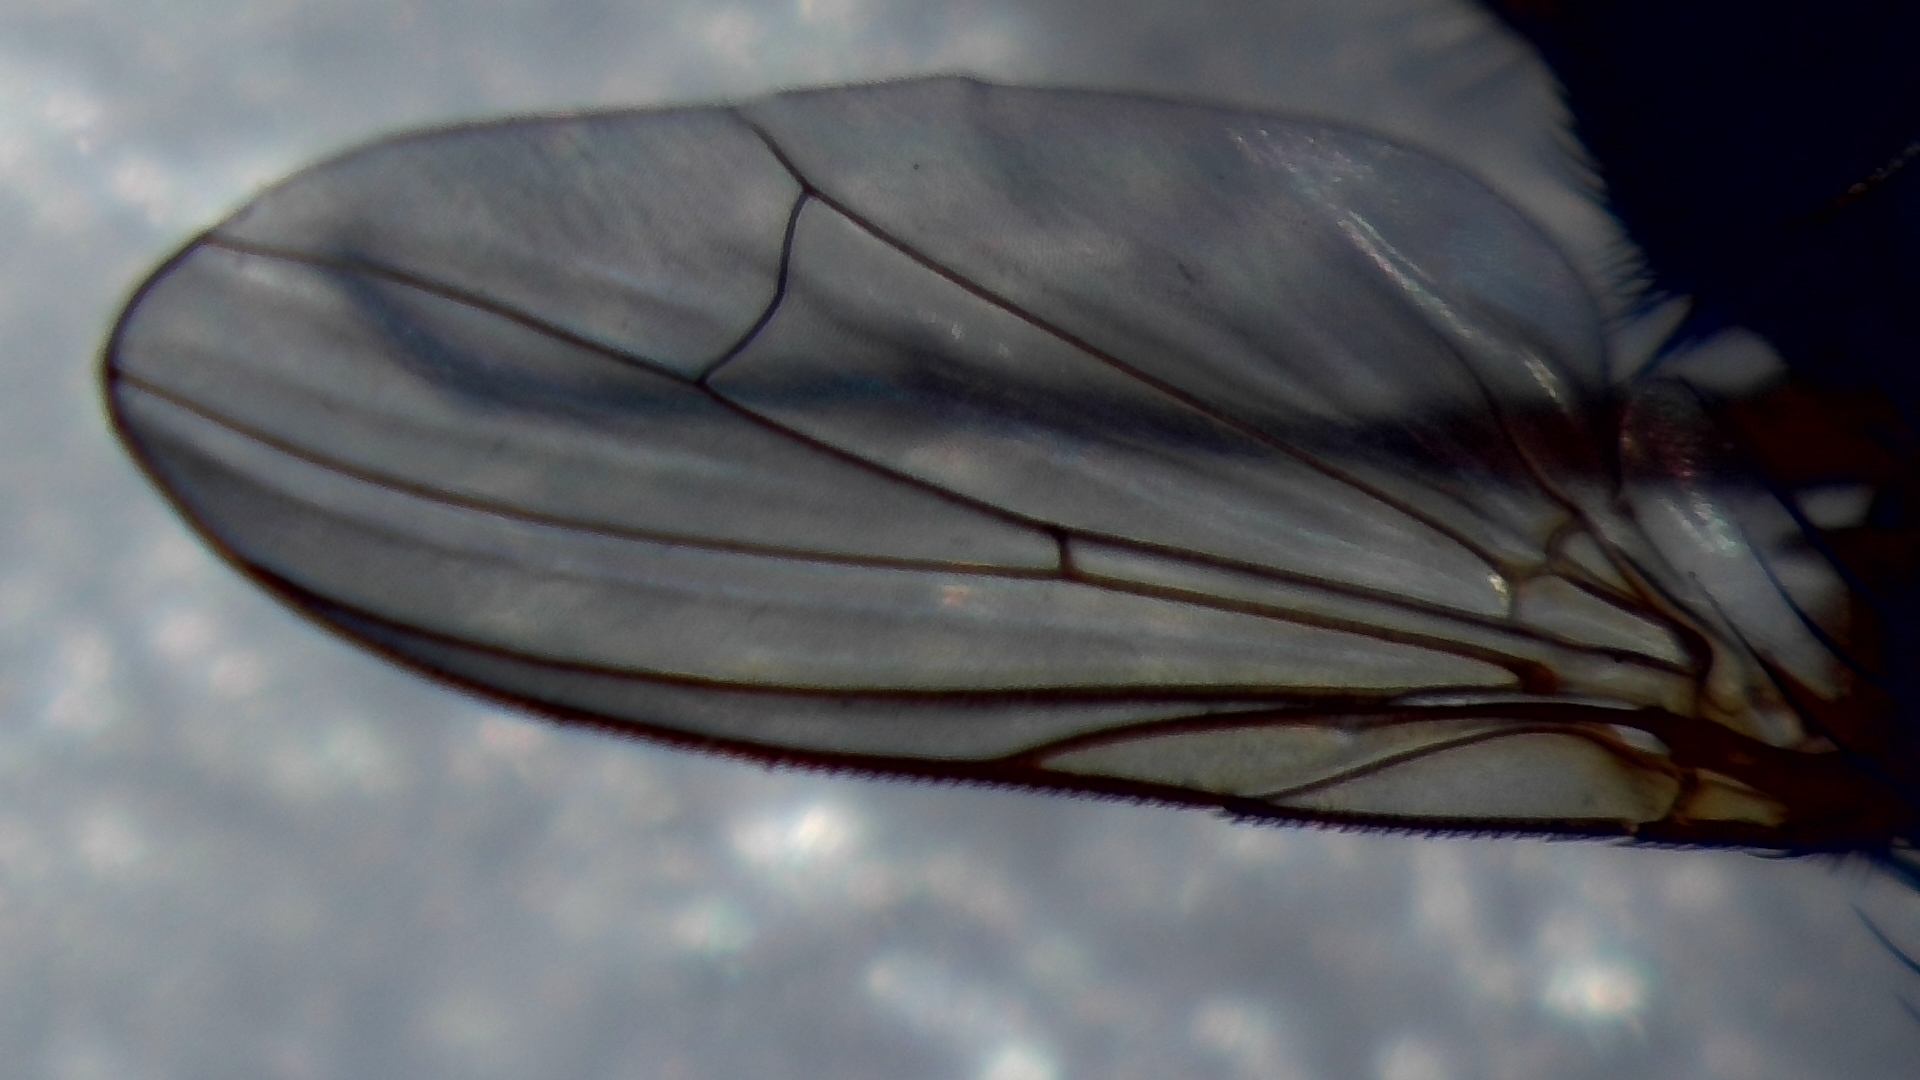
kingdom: Animalia
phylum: Arthropoda
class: Insecta
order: Diptera
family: Fanniidae
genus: Fannia
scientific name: Fannia lustrator
